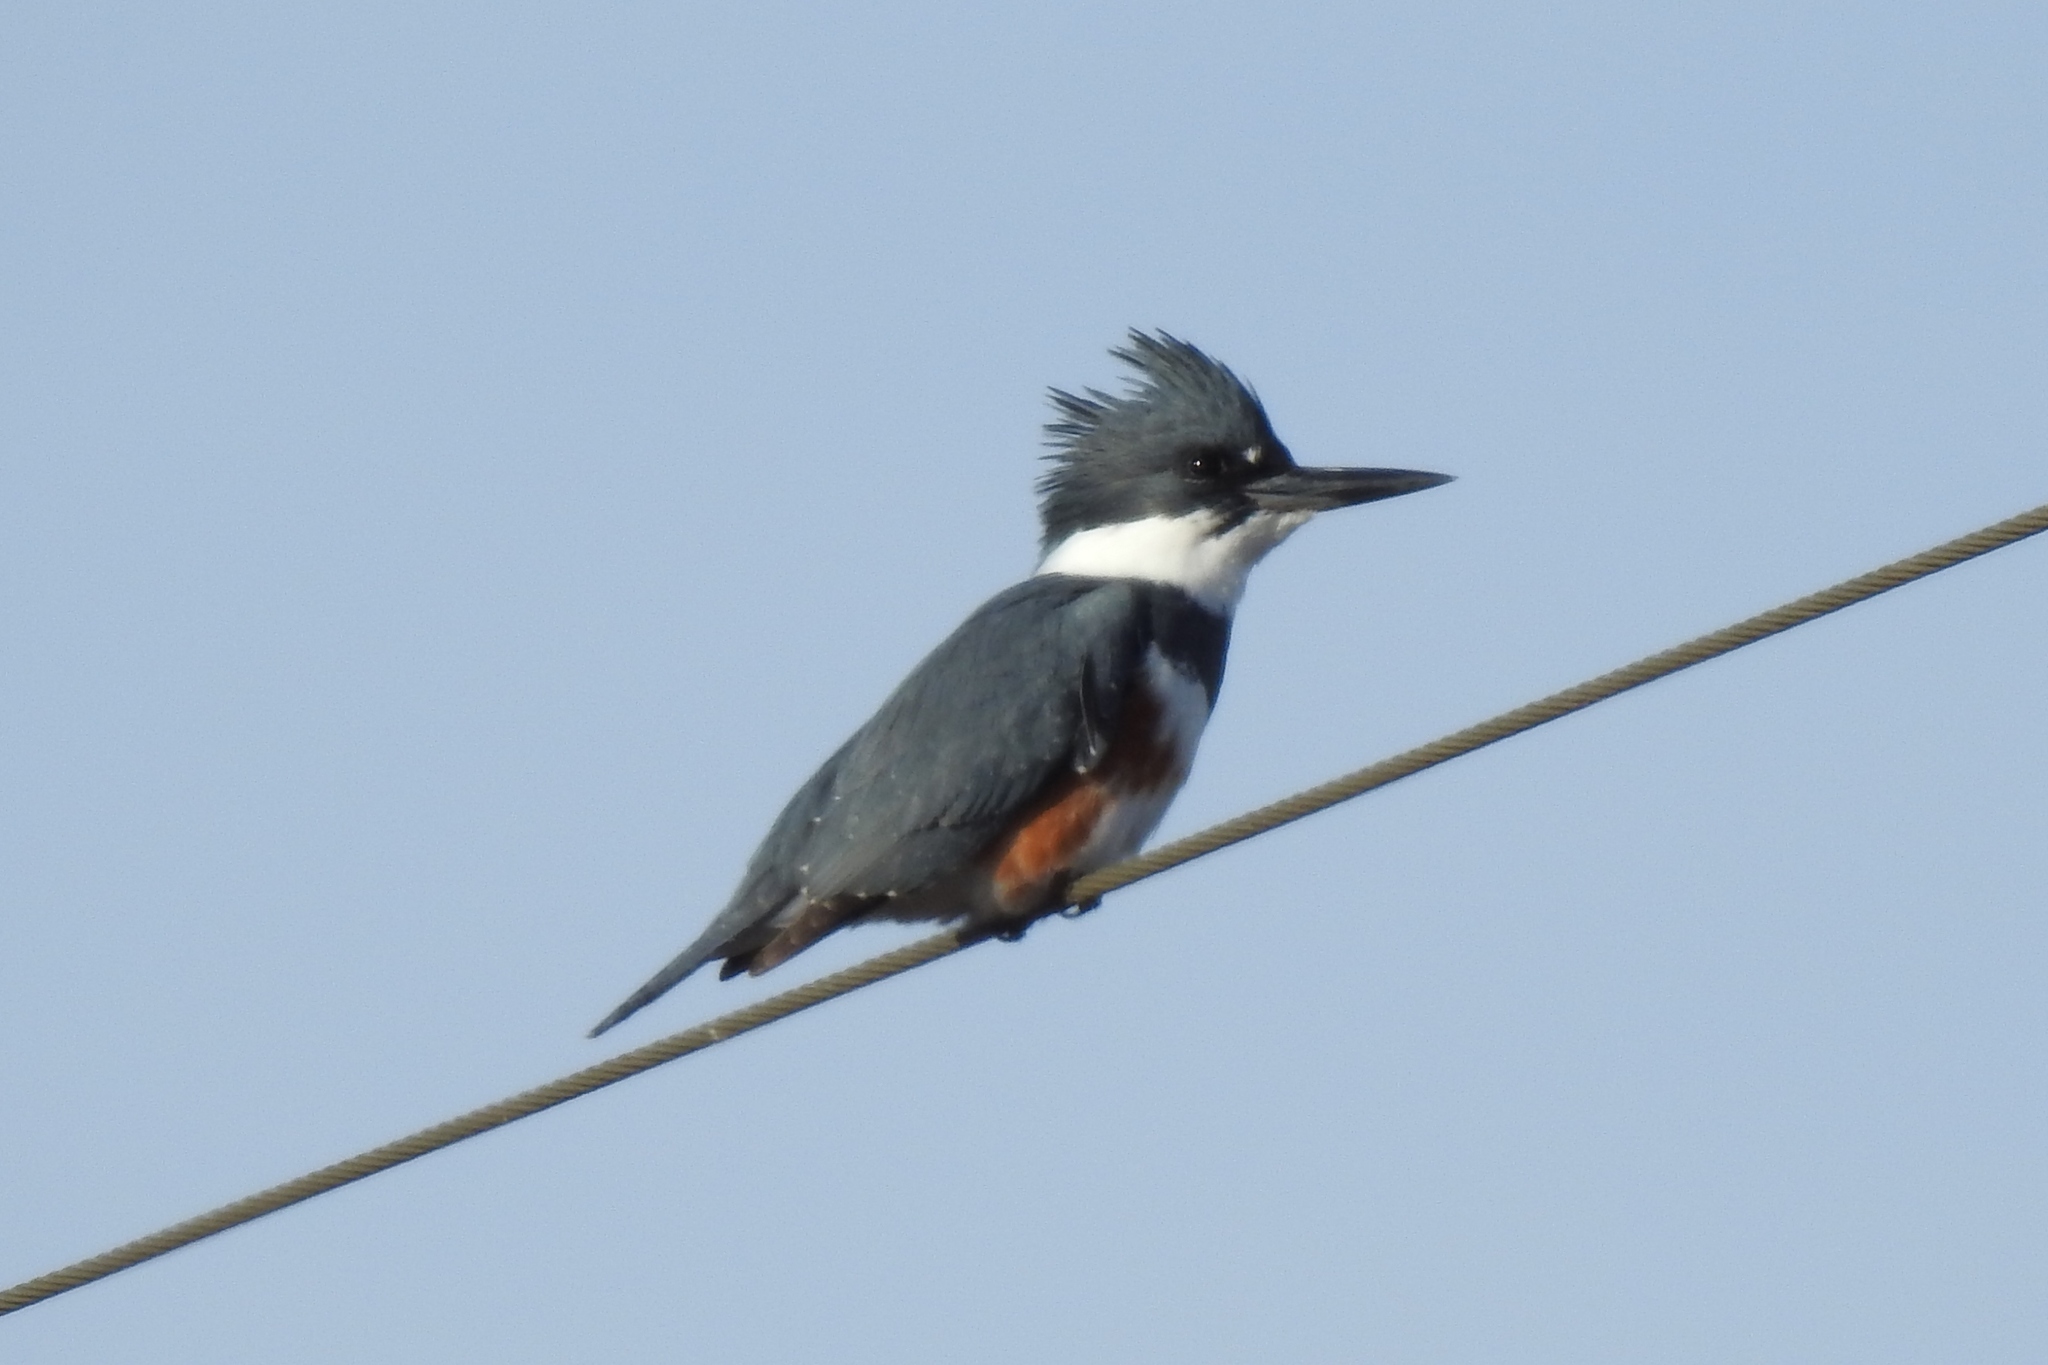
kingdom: Animalia
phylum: Chordata
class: Aves
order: Coraciiformes
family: Alcedinidae
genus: Megaceryle
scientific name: Megaceryle alcyon
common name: Belted kingfisher
